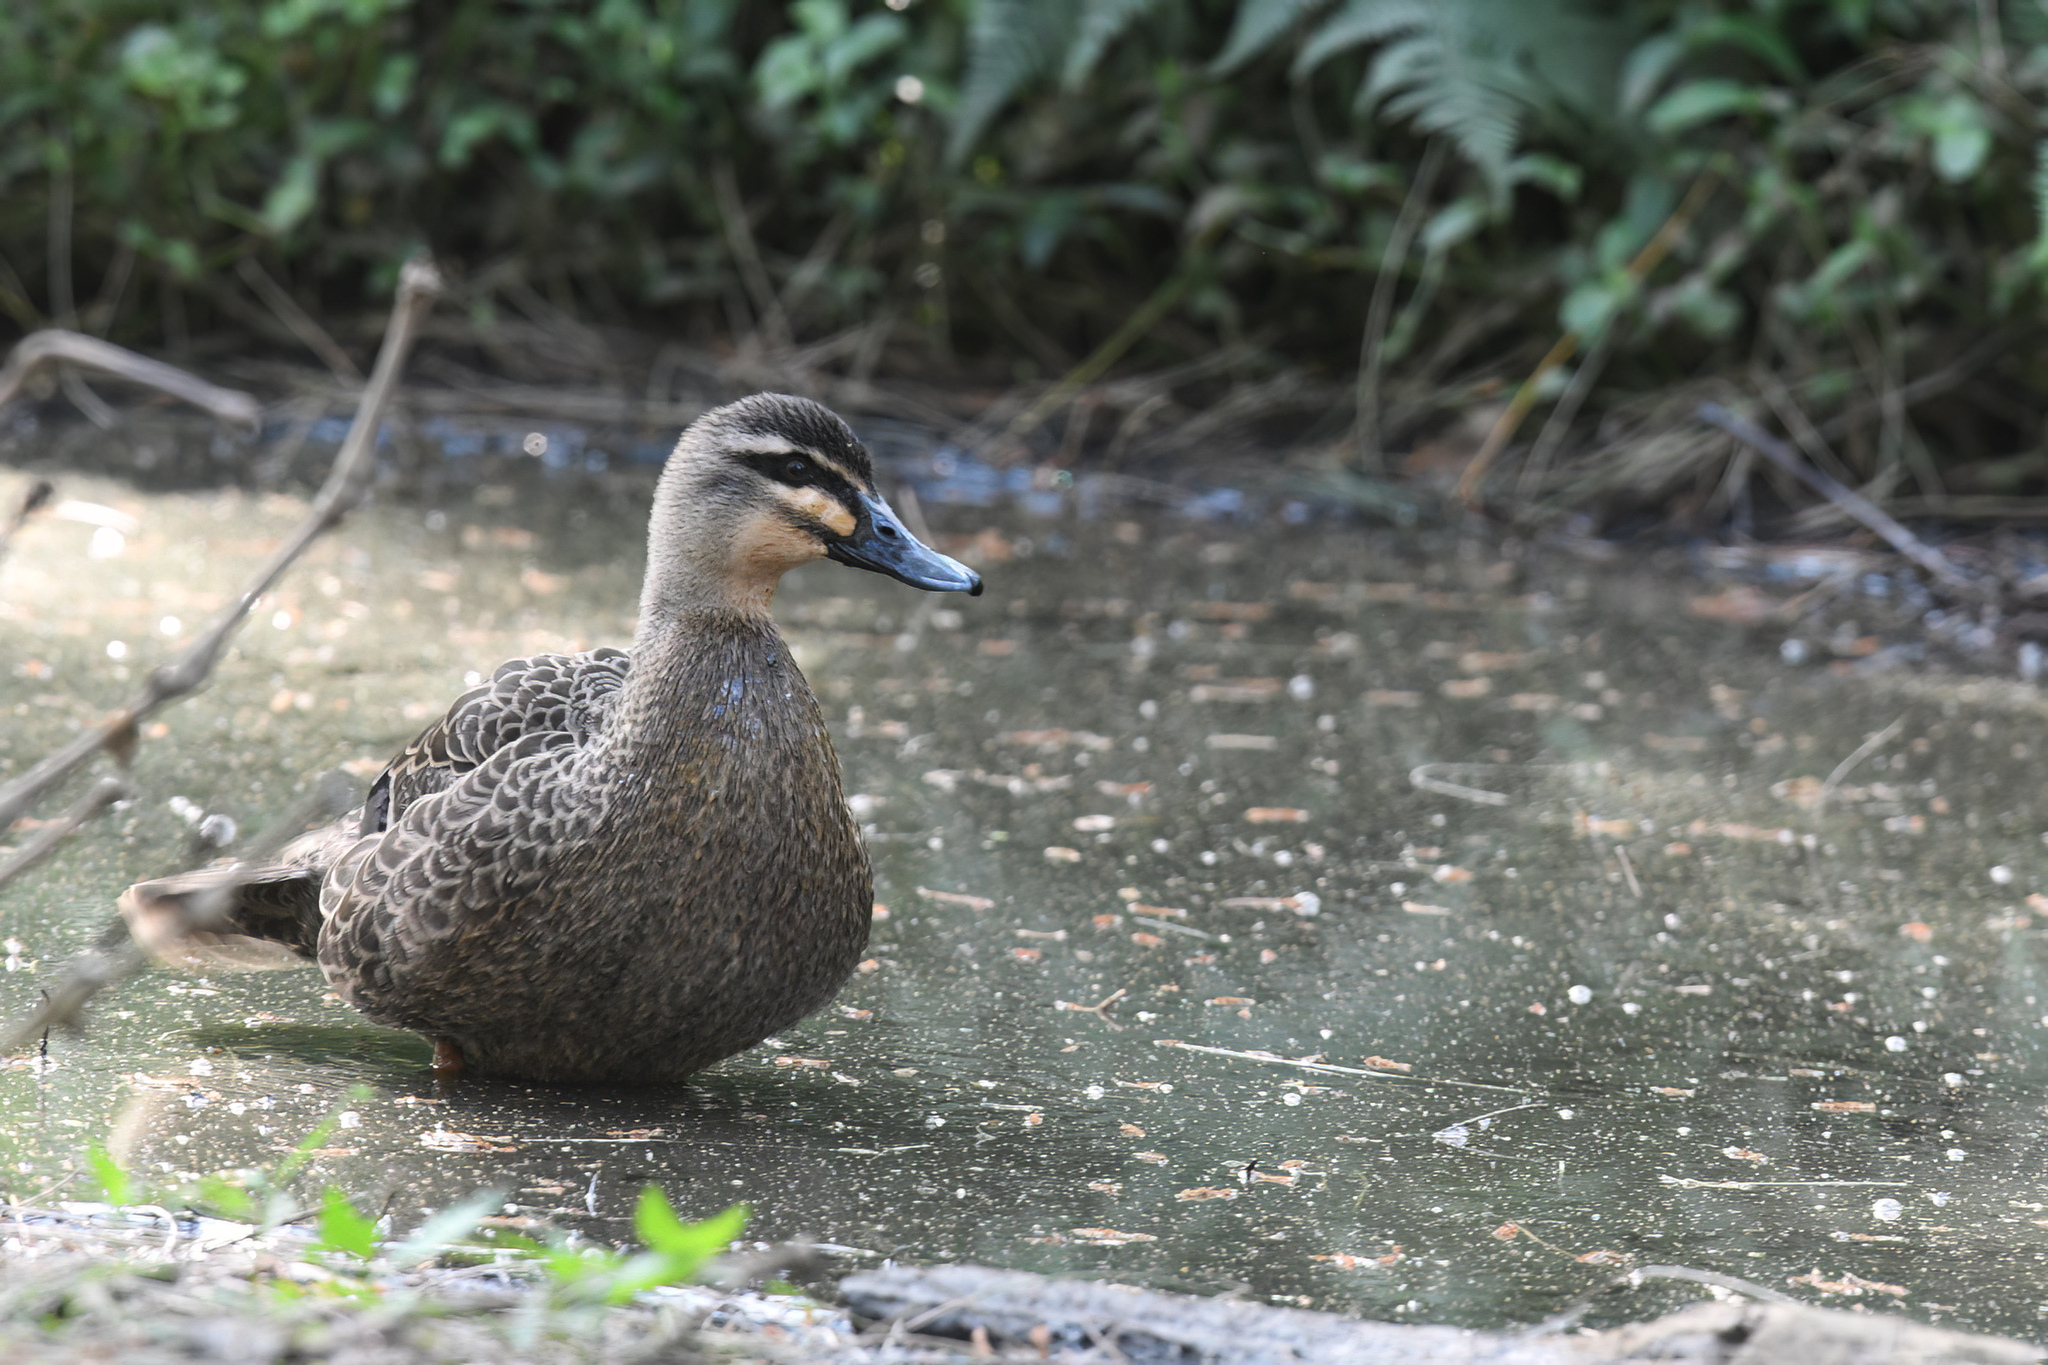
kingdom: Animalia
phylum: Chordata
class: Aves
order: Anseriformes
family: Anatidae
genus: Anas
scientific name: Anas superciliosa
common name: Pacific black duck
